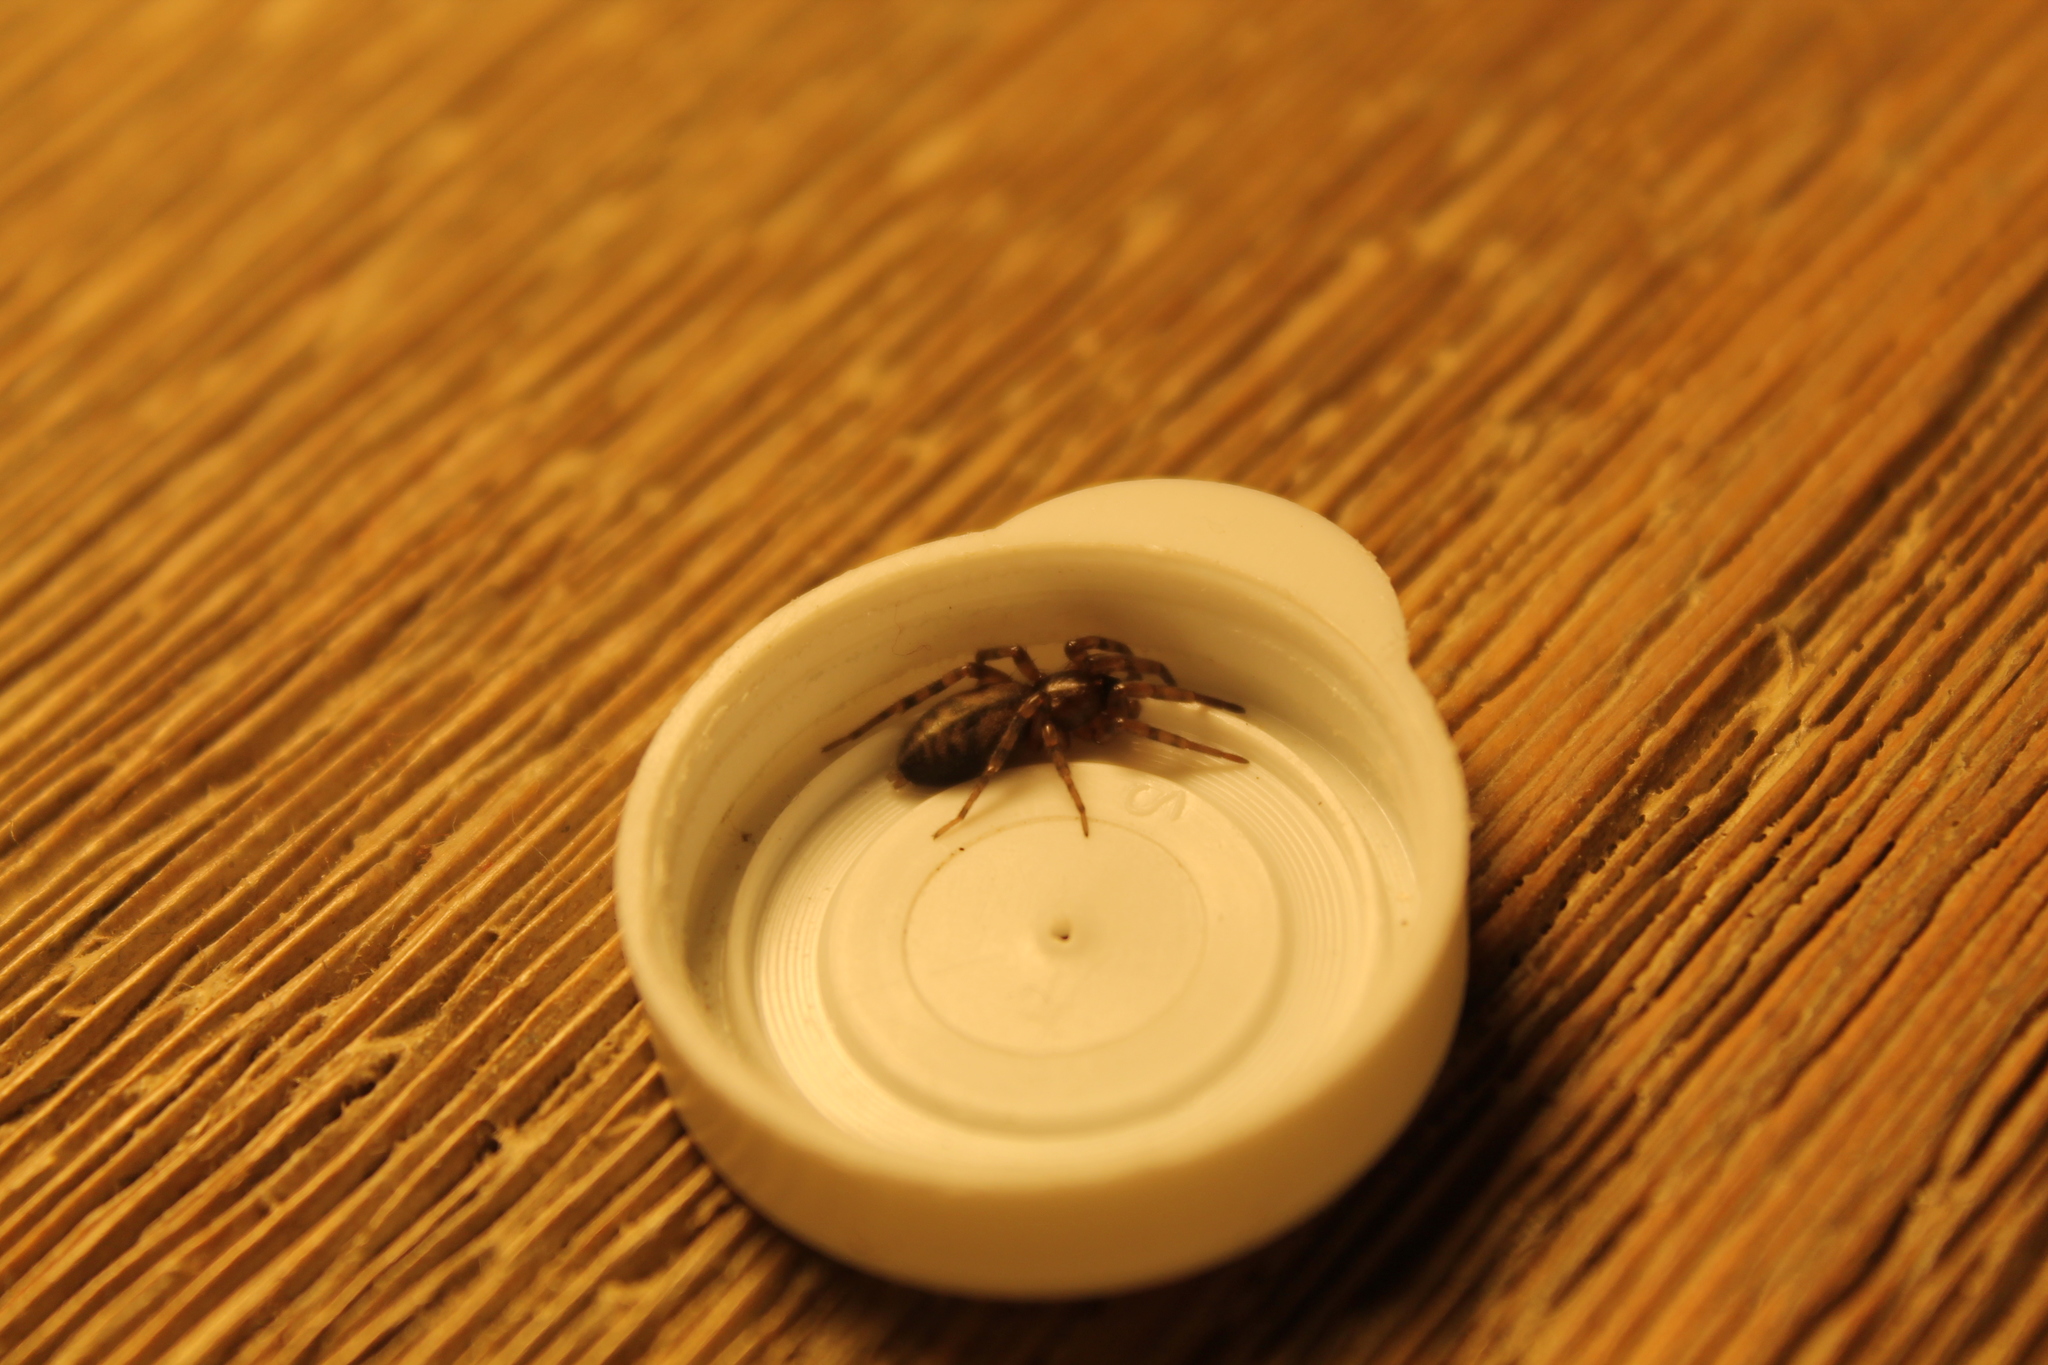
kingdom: Animalia
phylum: Arthropoda
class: Arachnida
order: Araneae
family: Gnaphosidae
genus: Intruda
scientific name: Intruda signata
